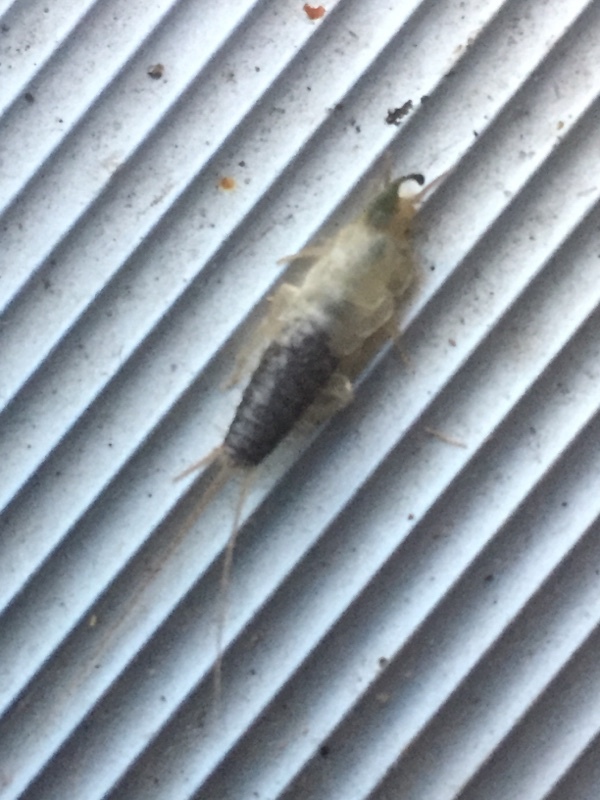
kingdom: Animalia
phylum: Arthropoda
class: Insecta
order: Zygentoma
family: Lepismatidae
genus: Ctenolepisma
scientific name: Ctenolepisma longicaudatum
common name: Silverfish
